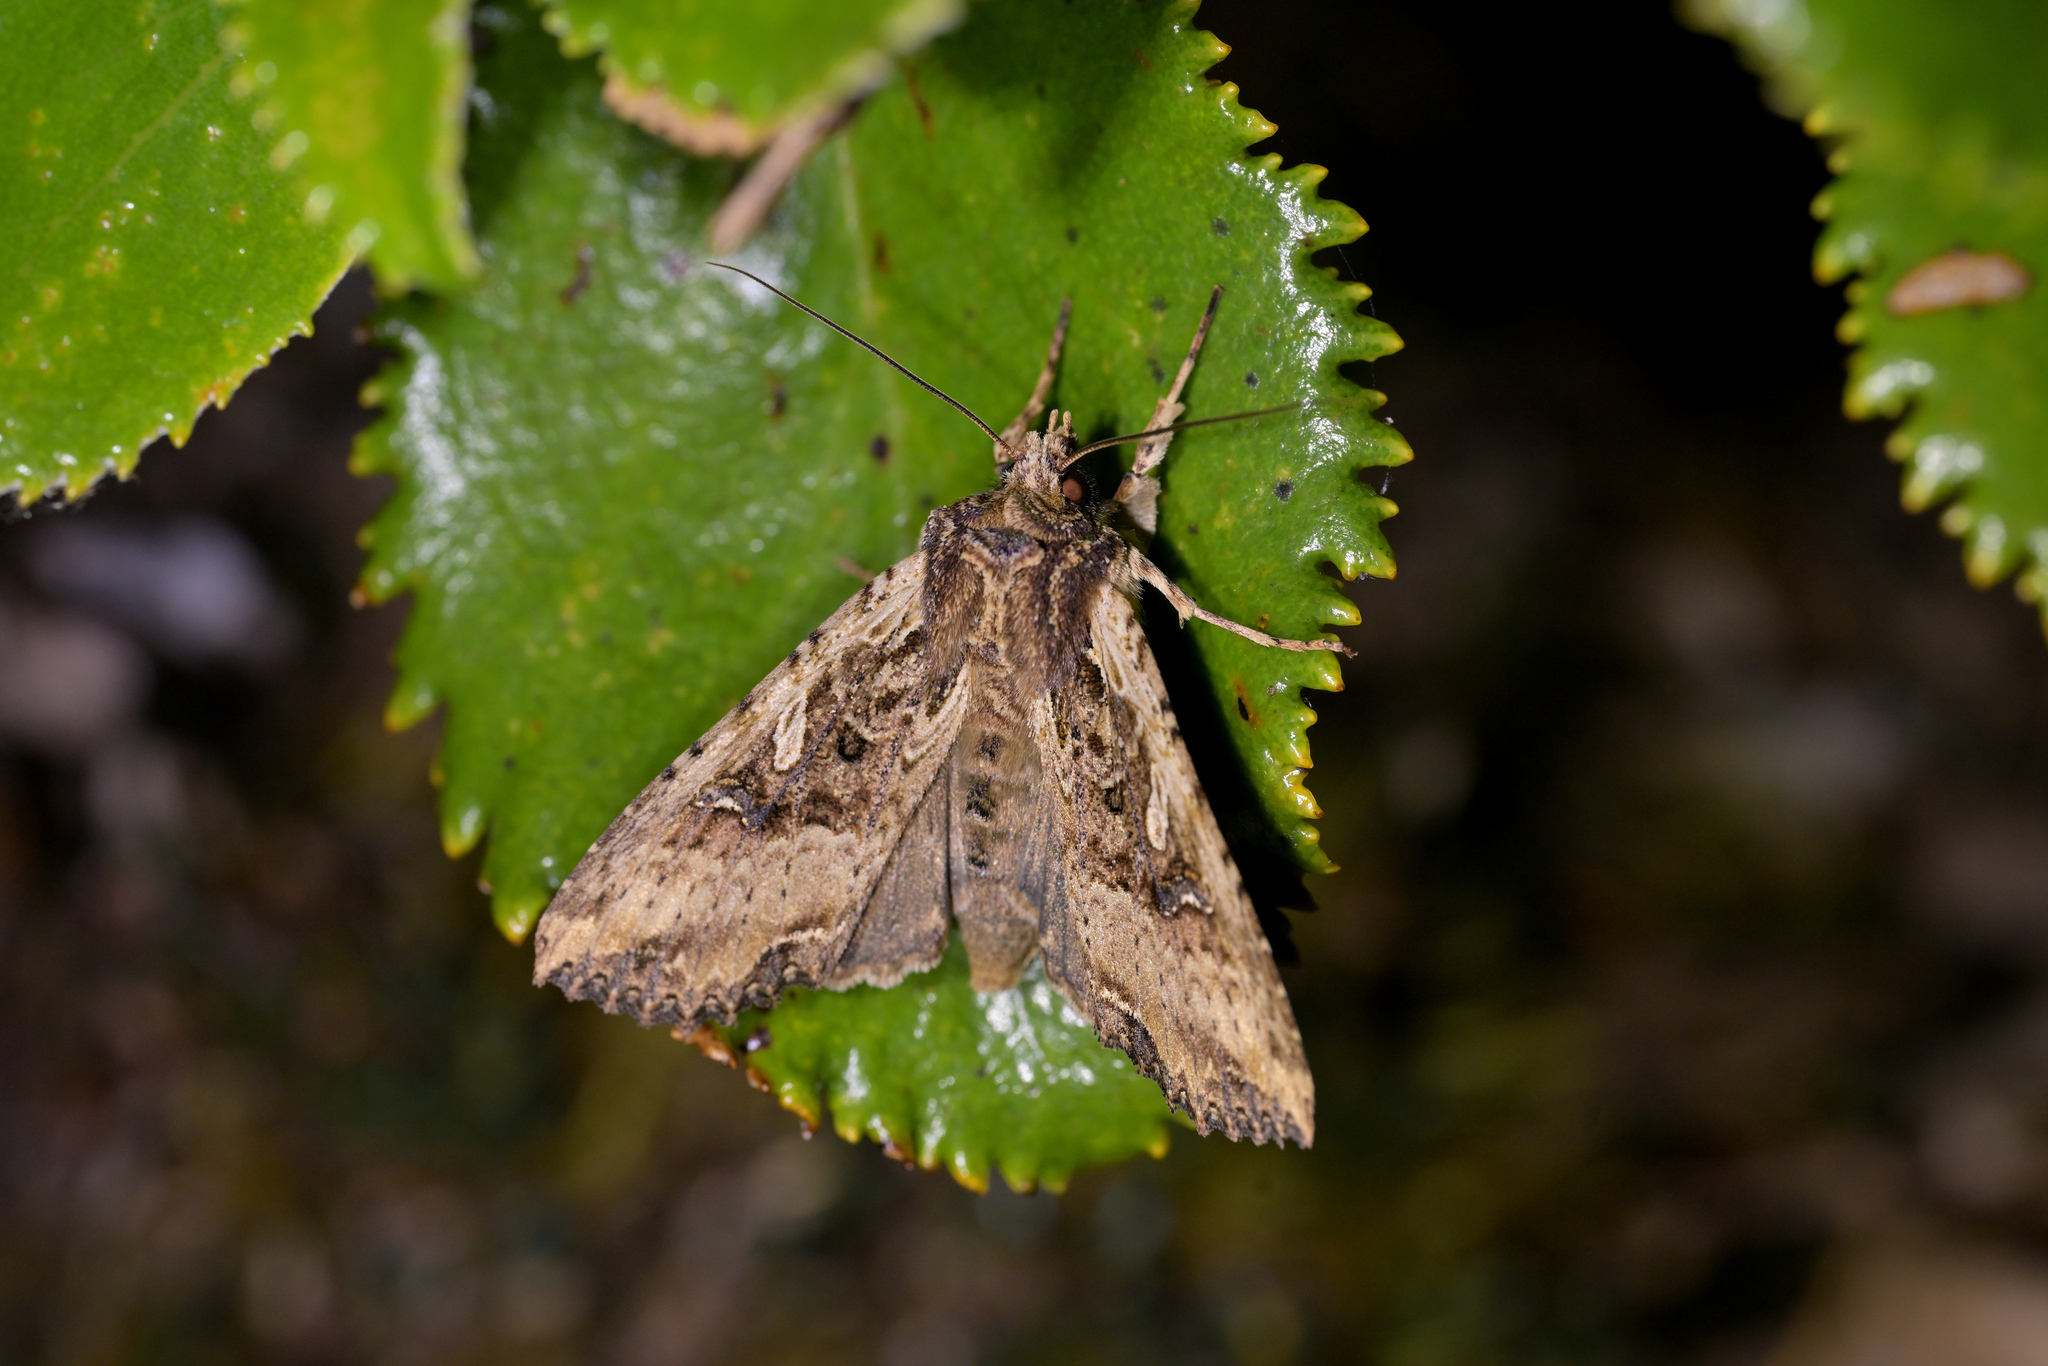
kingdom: Animalia
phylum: Arthropoda
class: Insecta
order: Lepidoptera
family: Noctuidae
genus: Meterana
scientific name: Meterana stipata
